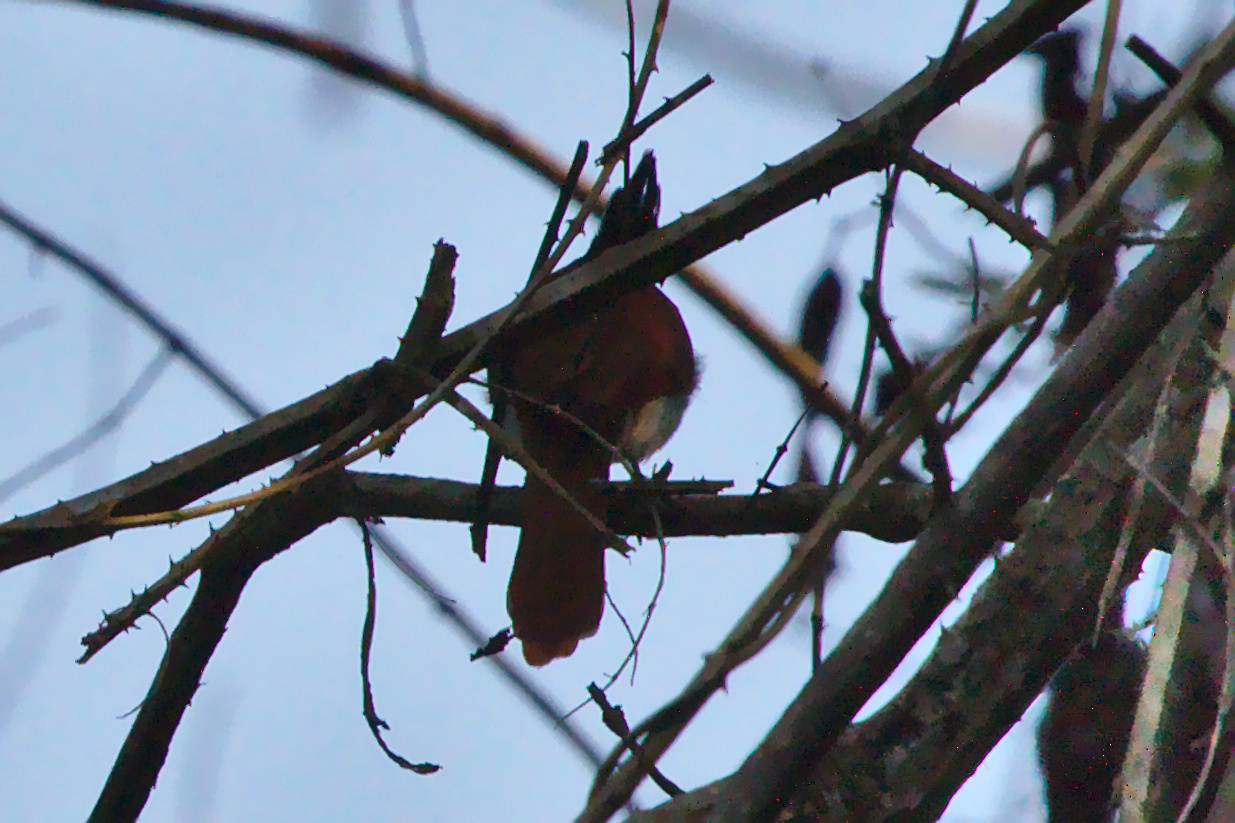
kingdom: Animalia
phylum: Chordata
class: Aves
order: Passeriformes
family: Monarchidae
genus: Terpsiphone
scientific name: Terpsiphone paradisi
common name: Indian paradise flycatcher
